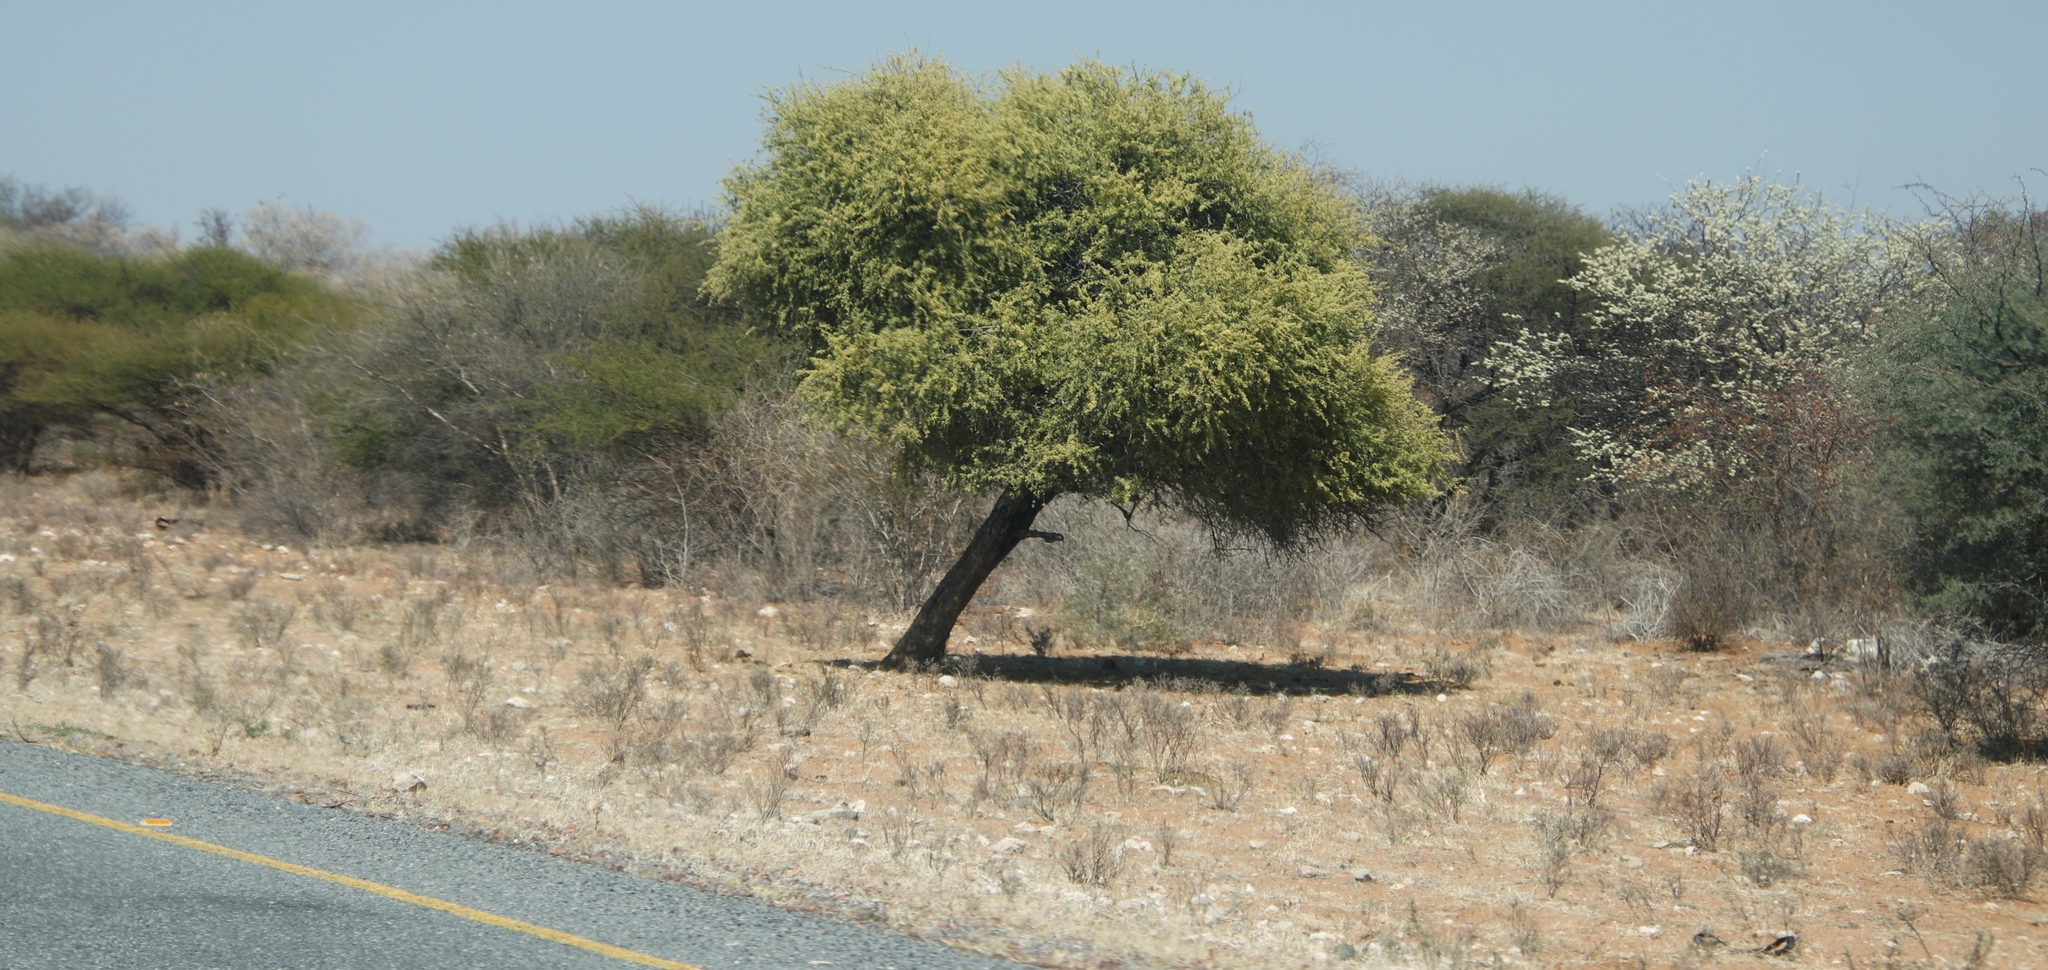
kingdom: Plantae
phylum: Tracheophyta
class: Magnoliopsida
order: Brassicales
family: Capparaceae
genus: Boscia
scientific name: Boscia albitrunca
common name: Caper bush
